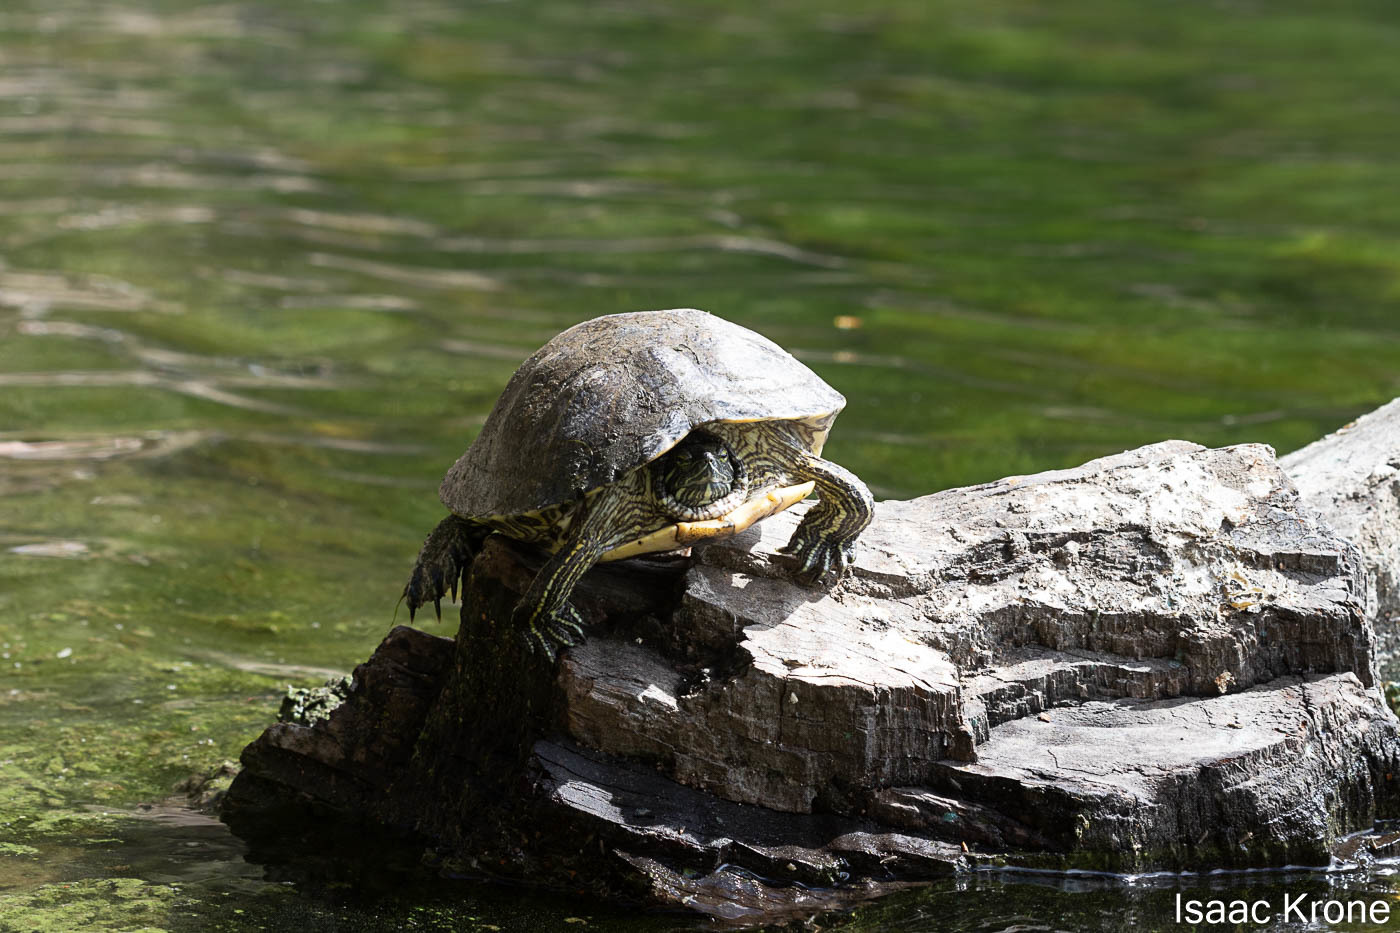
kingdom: Animalia
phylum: Chordata
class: Testudines
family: Emydidae
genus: Trachemys
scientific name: Trachemys scripta
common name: Slider
